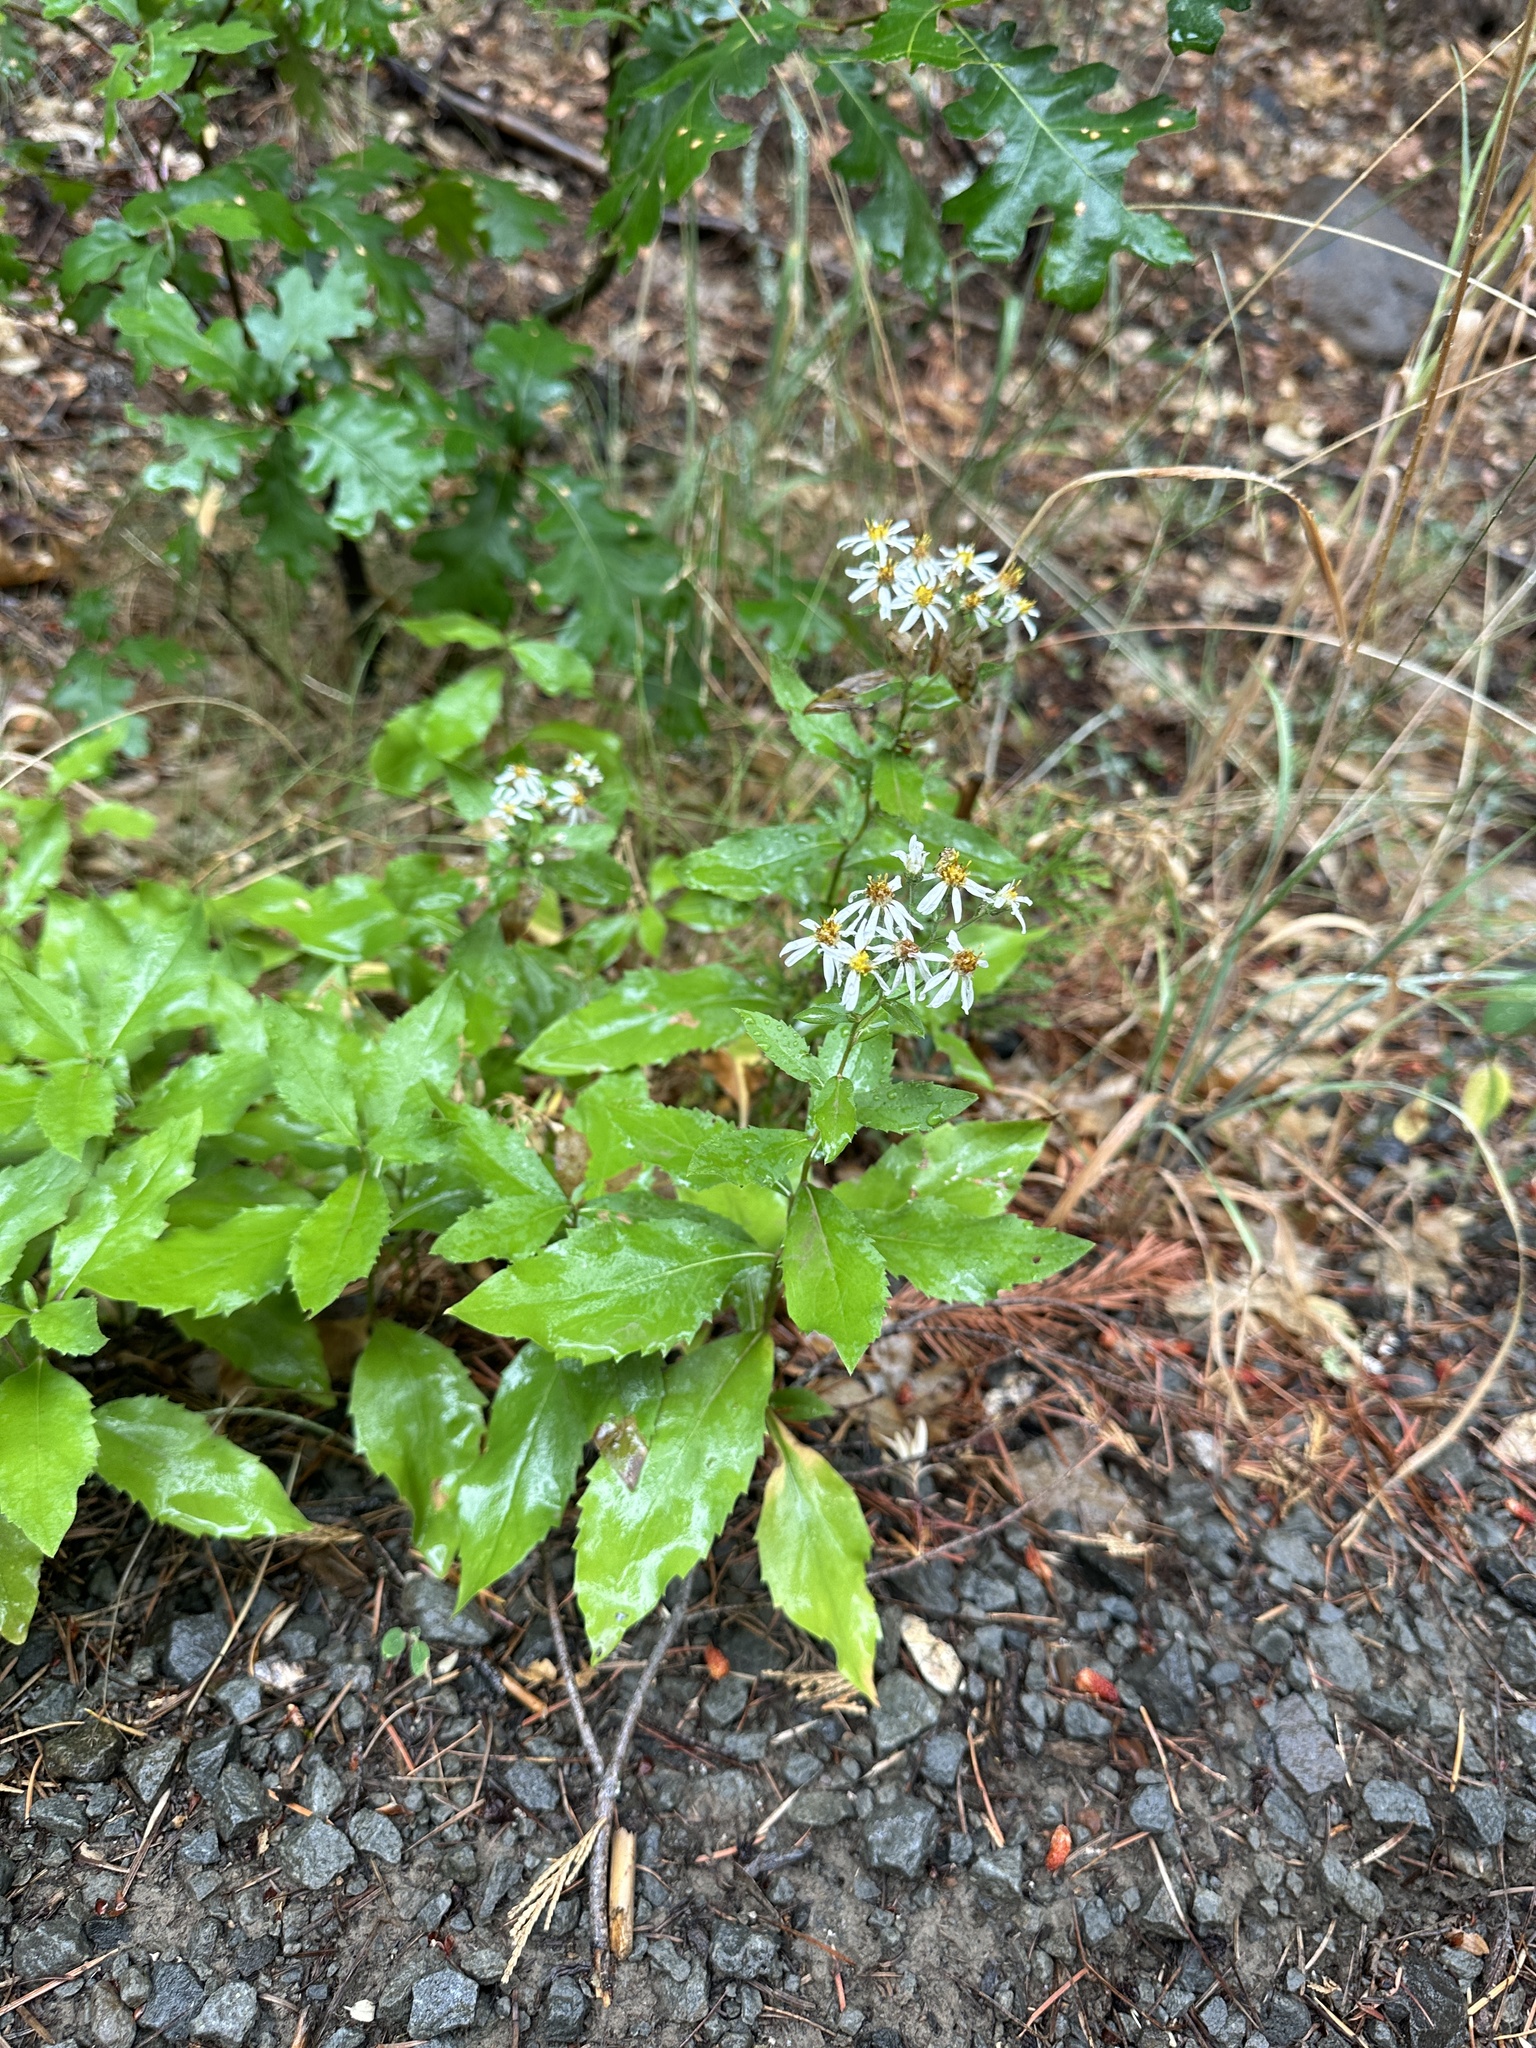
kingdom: Plantae
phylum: Tracheophyta
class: Magnoliopsida
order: Asterales
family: Asteraceae
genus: Eurybia
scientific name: Eurybia radulina
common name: Rough-leaved aster
